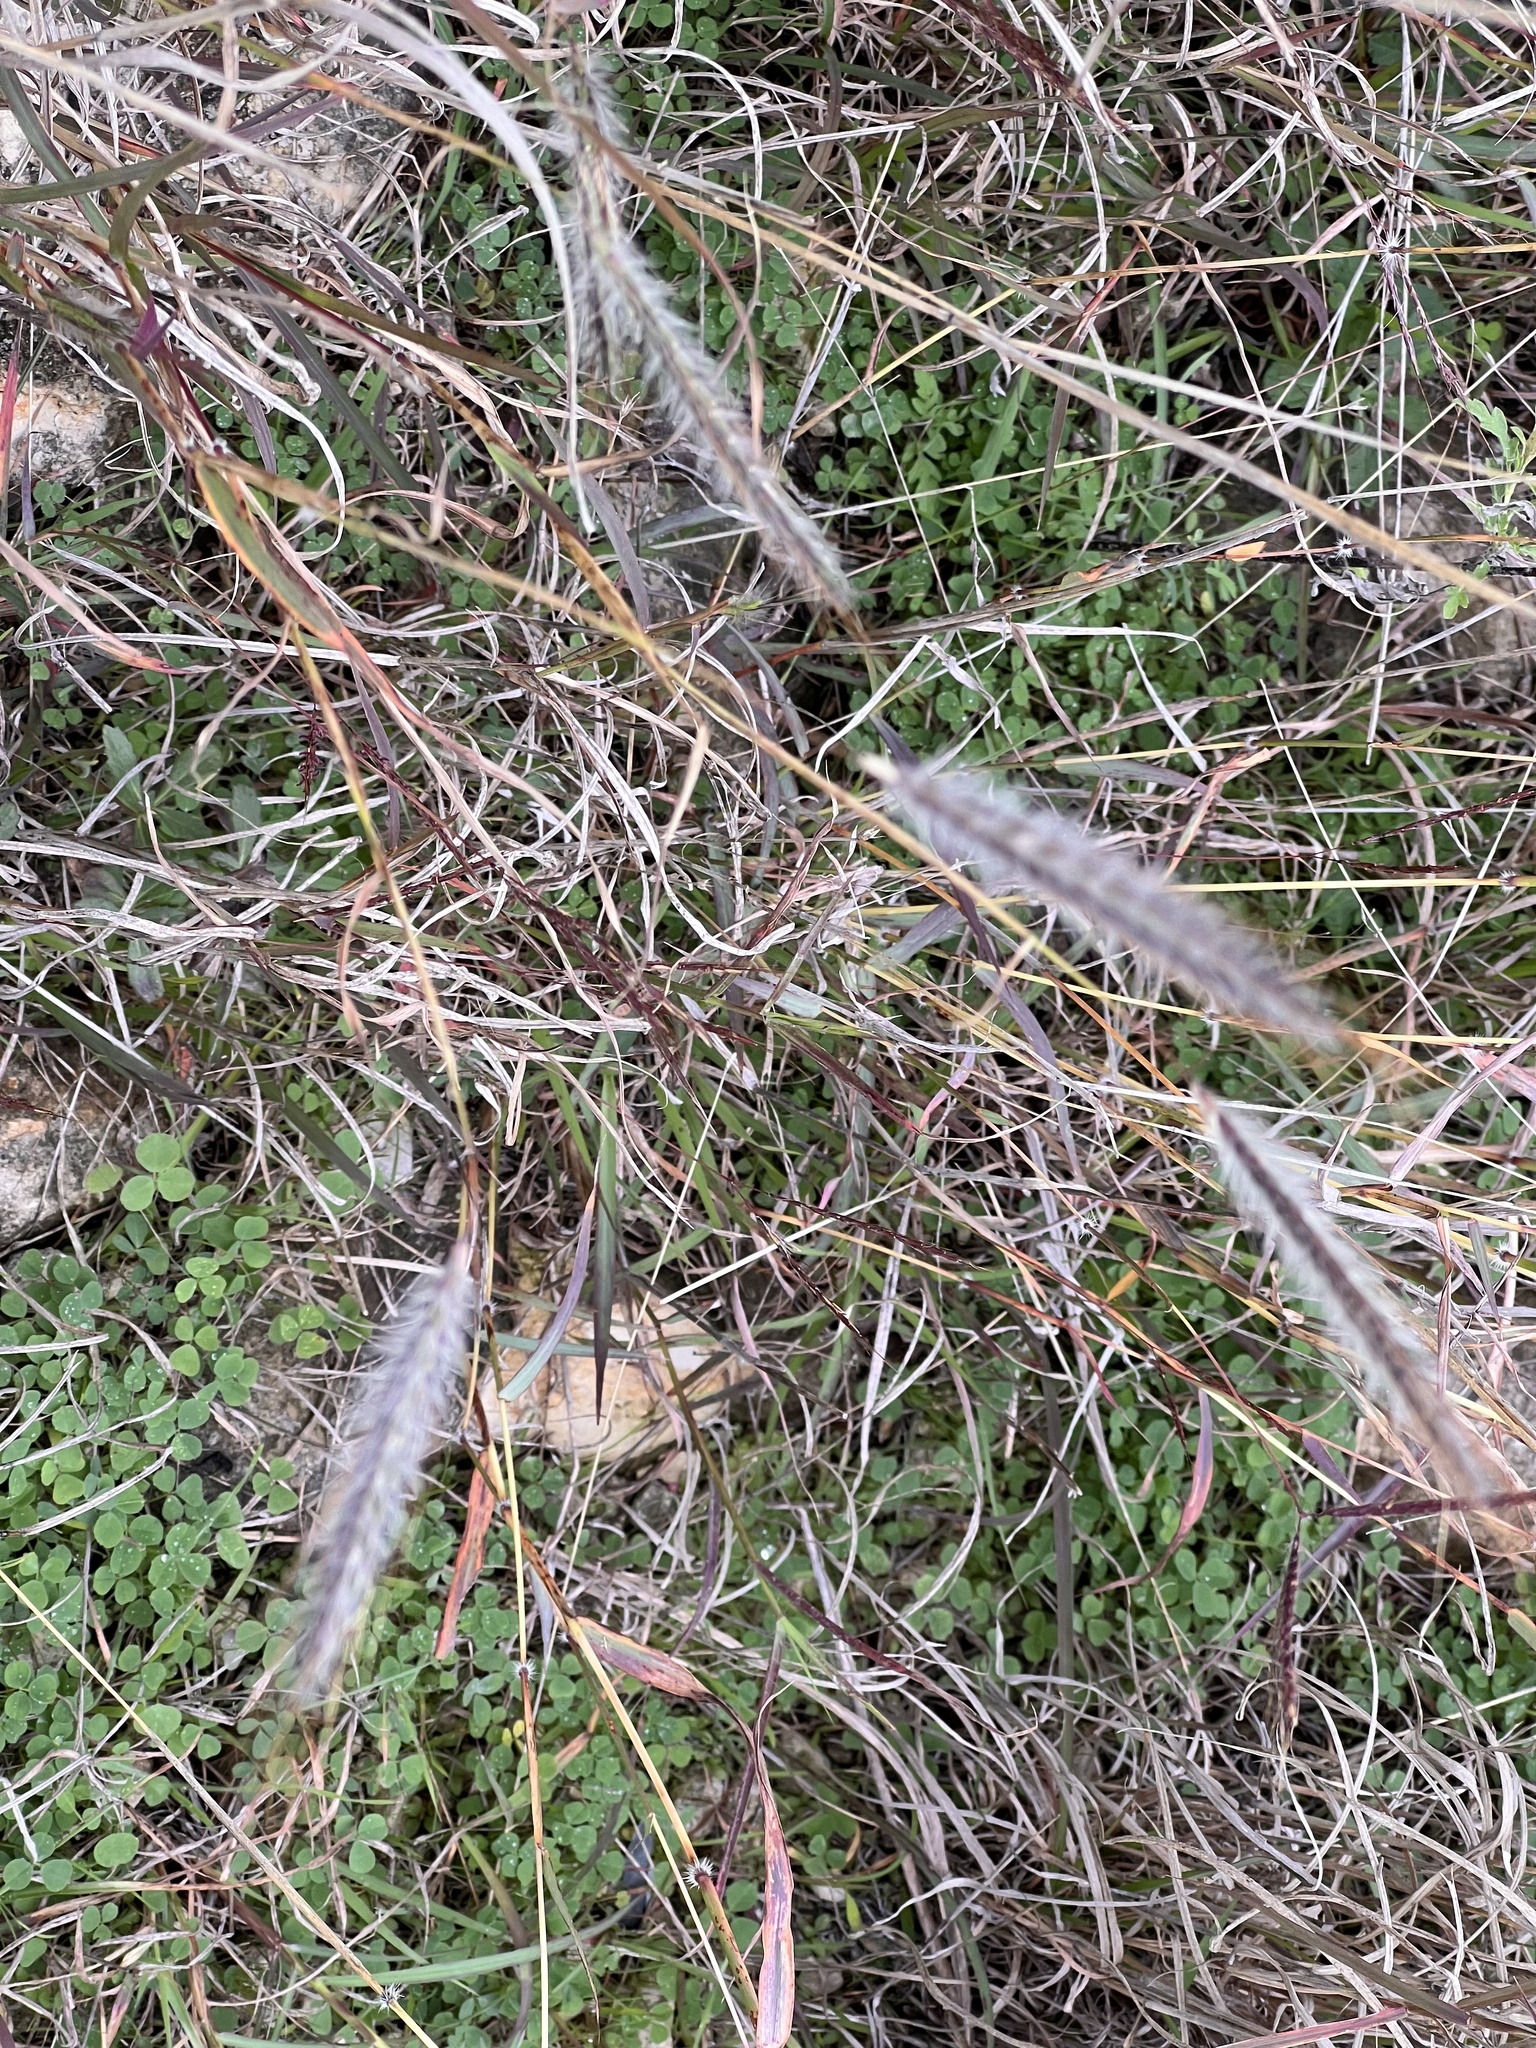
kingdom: Plantae
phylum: Tracheophyta
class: Liliopsida
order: Poales
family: Poaceae
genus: Dichanthium
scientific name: Dichanthium sericeum
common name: Silky bluestem
